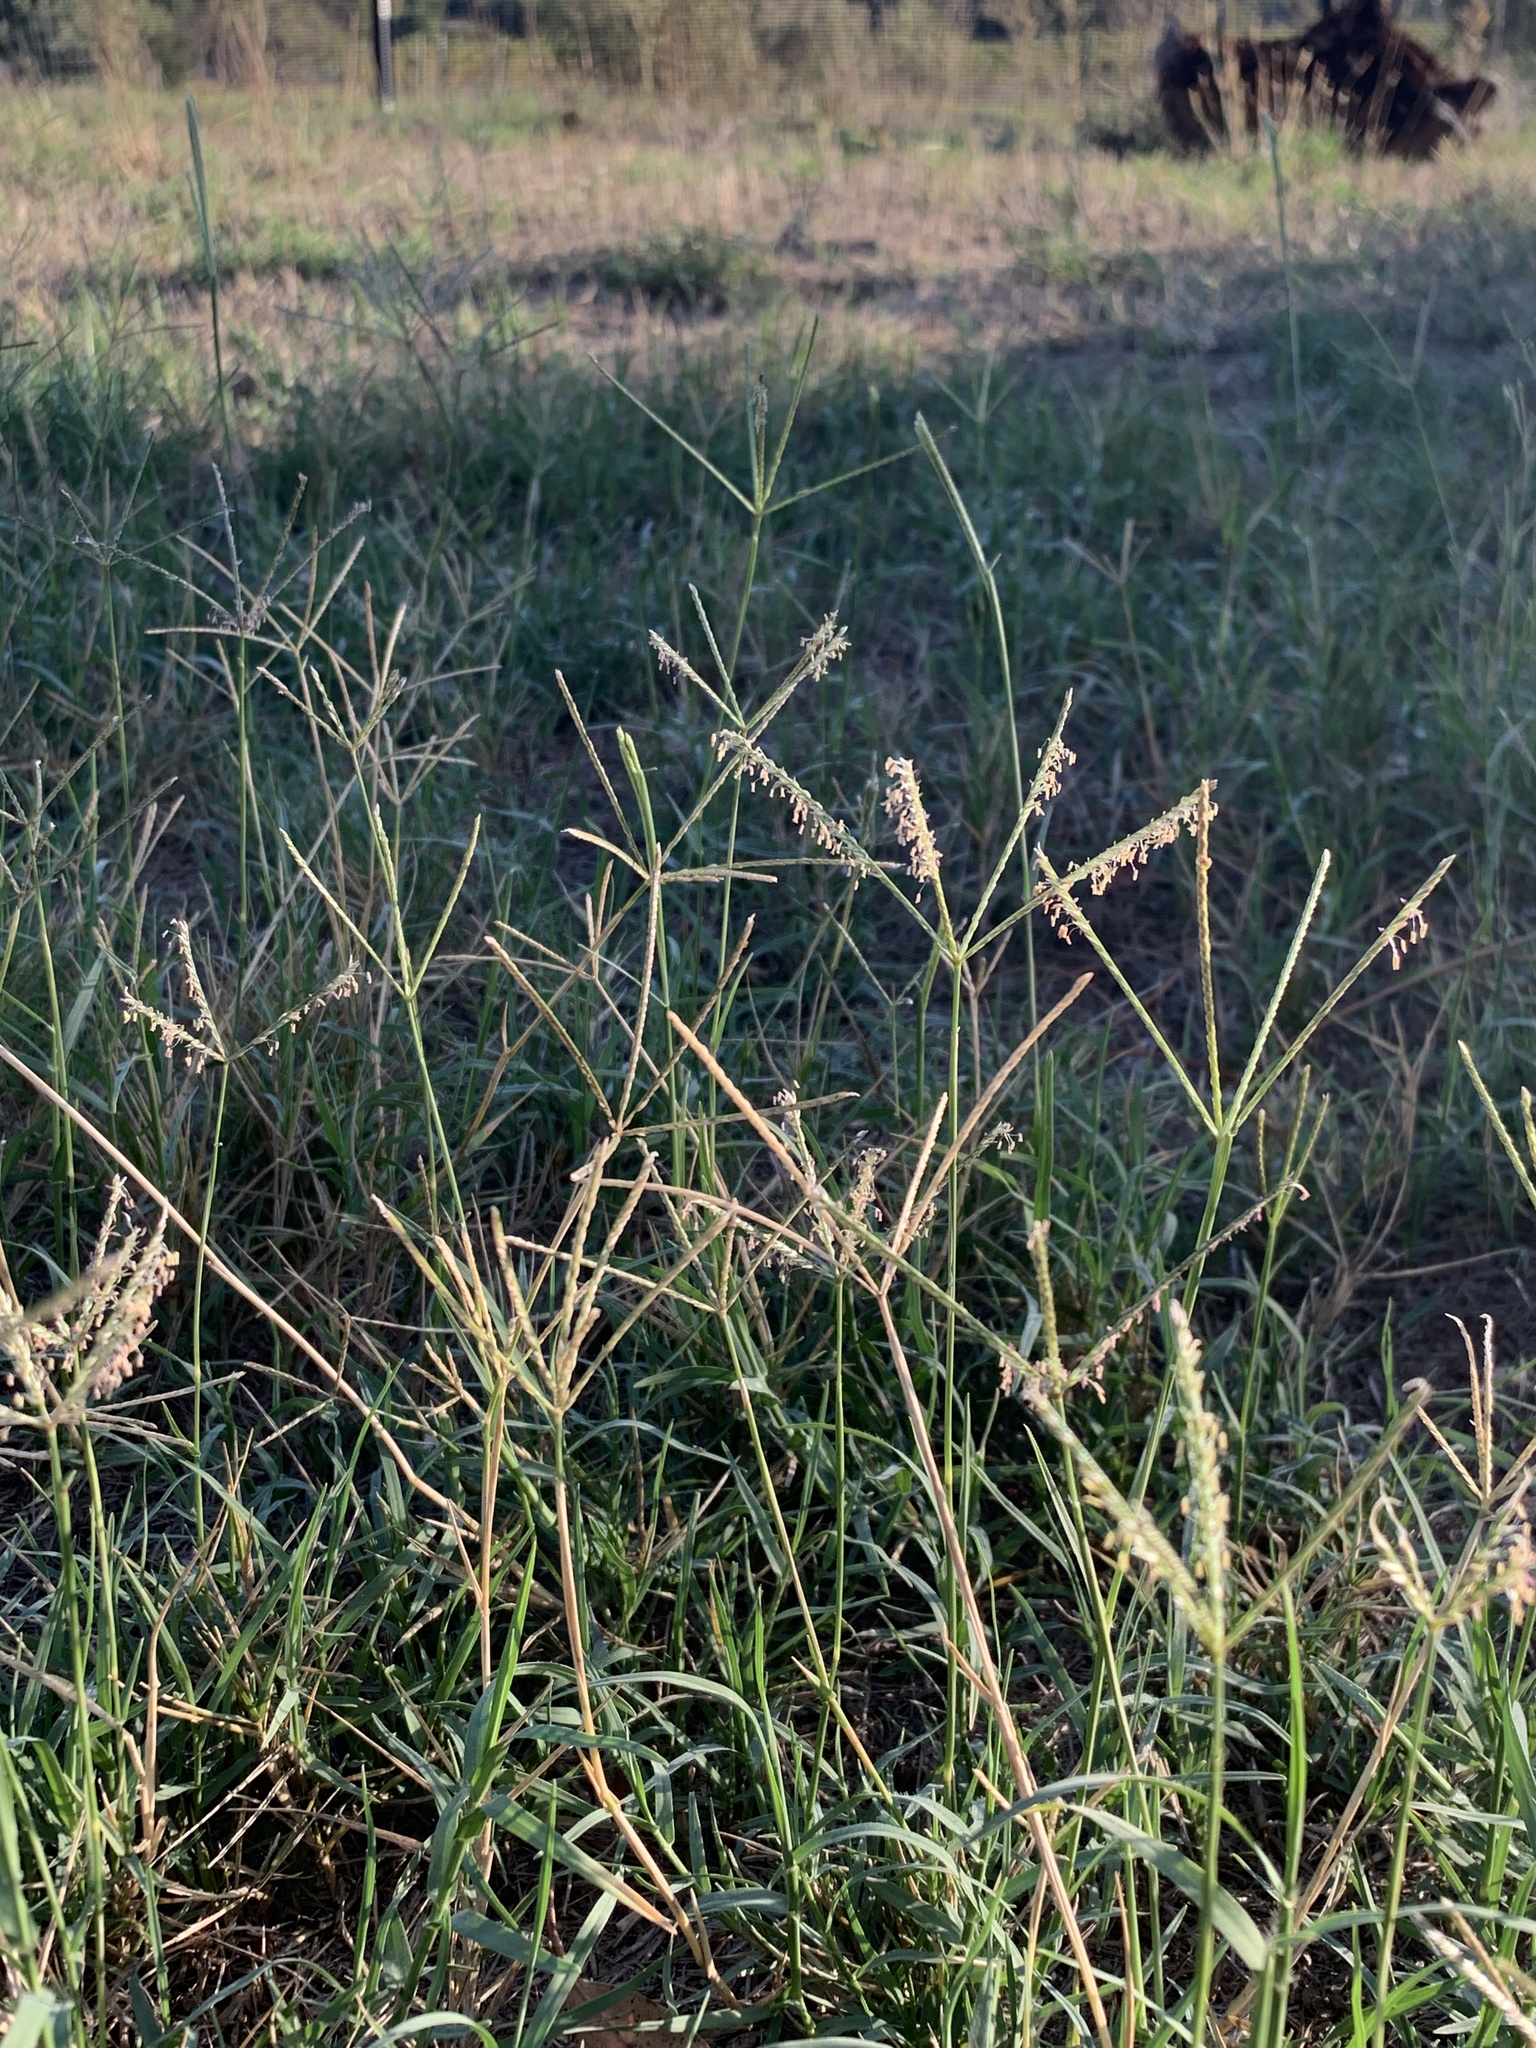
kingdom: Plantae
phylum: Tracheophyta
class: Liliopsida
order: Poales
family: Poaceae
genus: Cynodon
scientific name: Cynodon dactylon
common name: Bermuda grass
